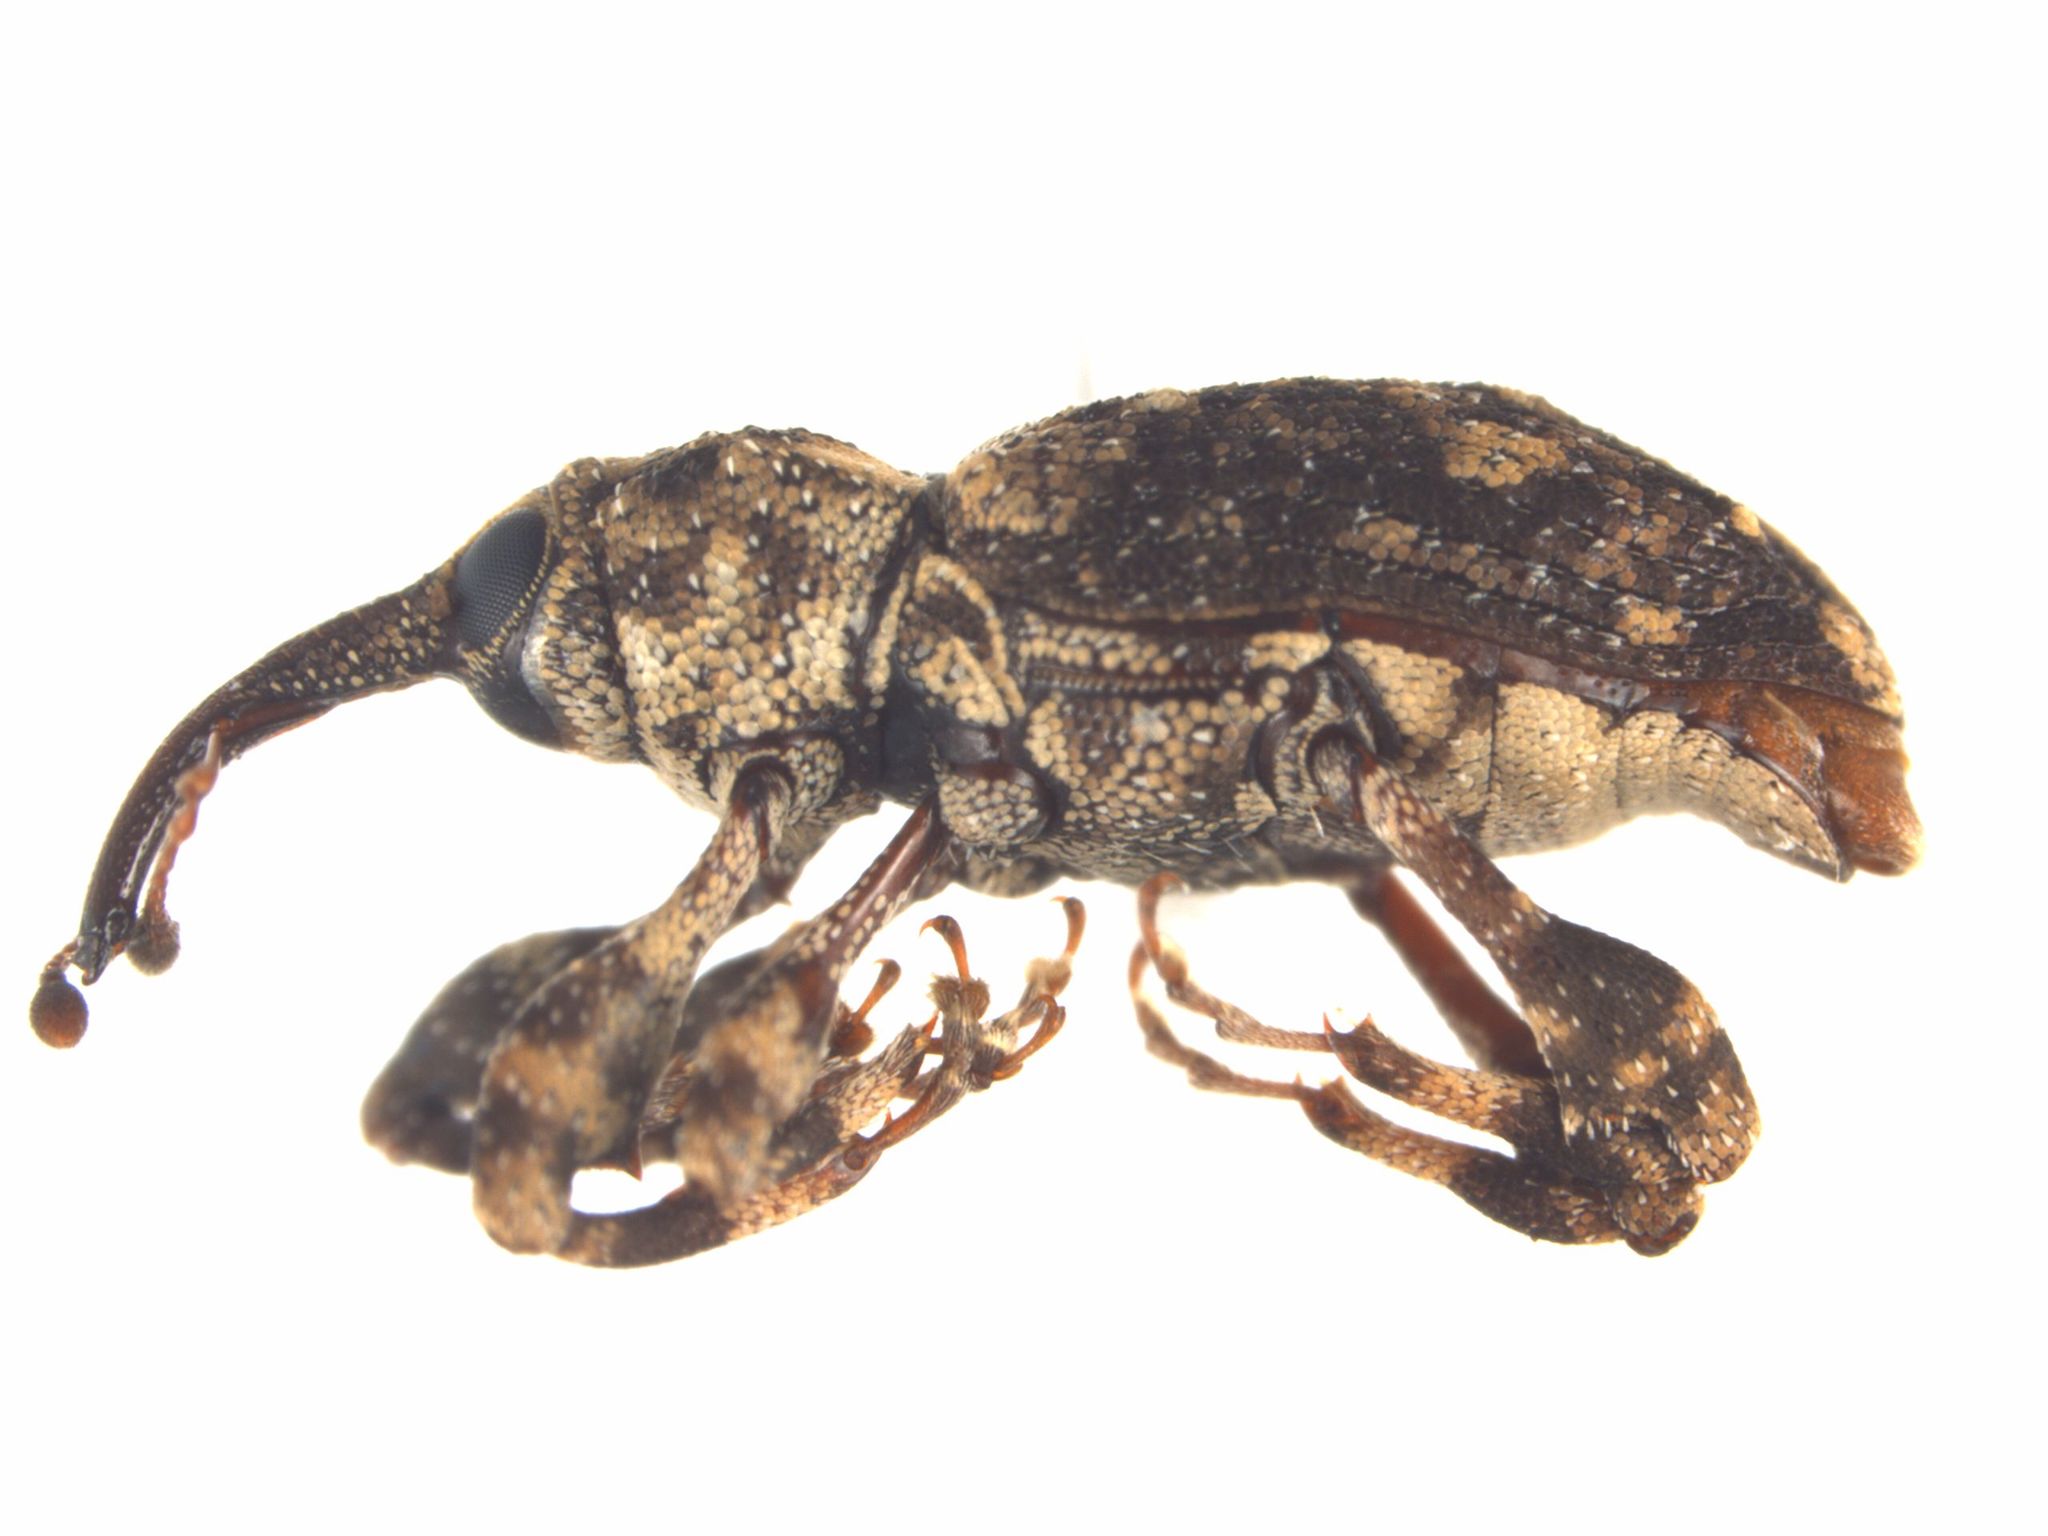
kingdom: Animalia
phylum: Arthropoda
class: Insecta
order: Coleoptera
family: Curculionidae
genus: Acicnemis
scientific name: Acicnemis crassiuscula
